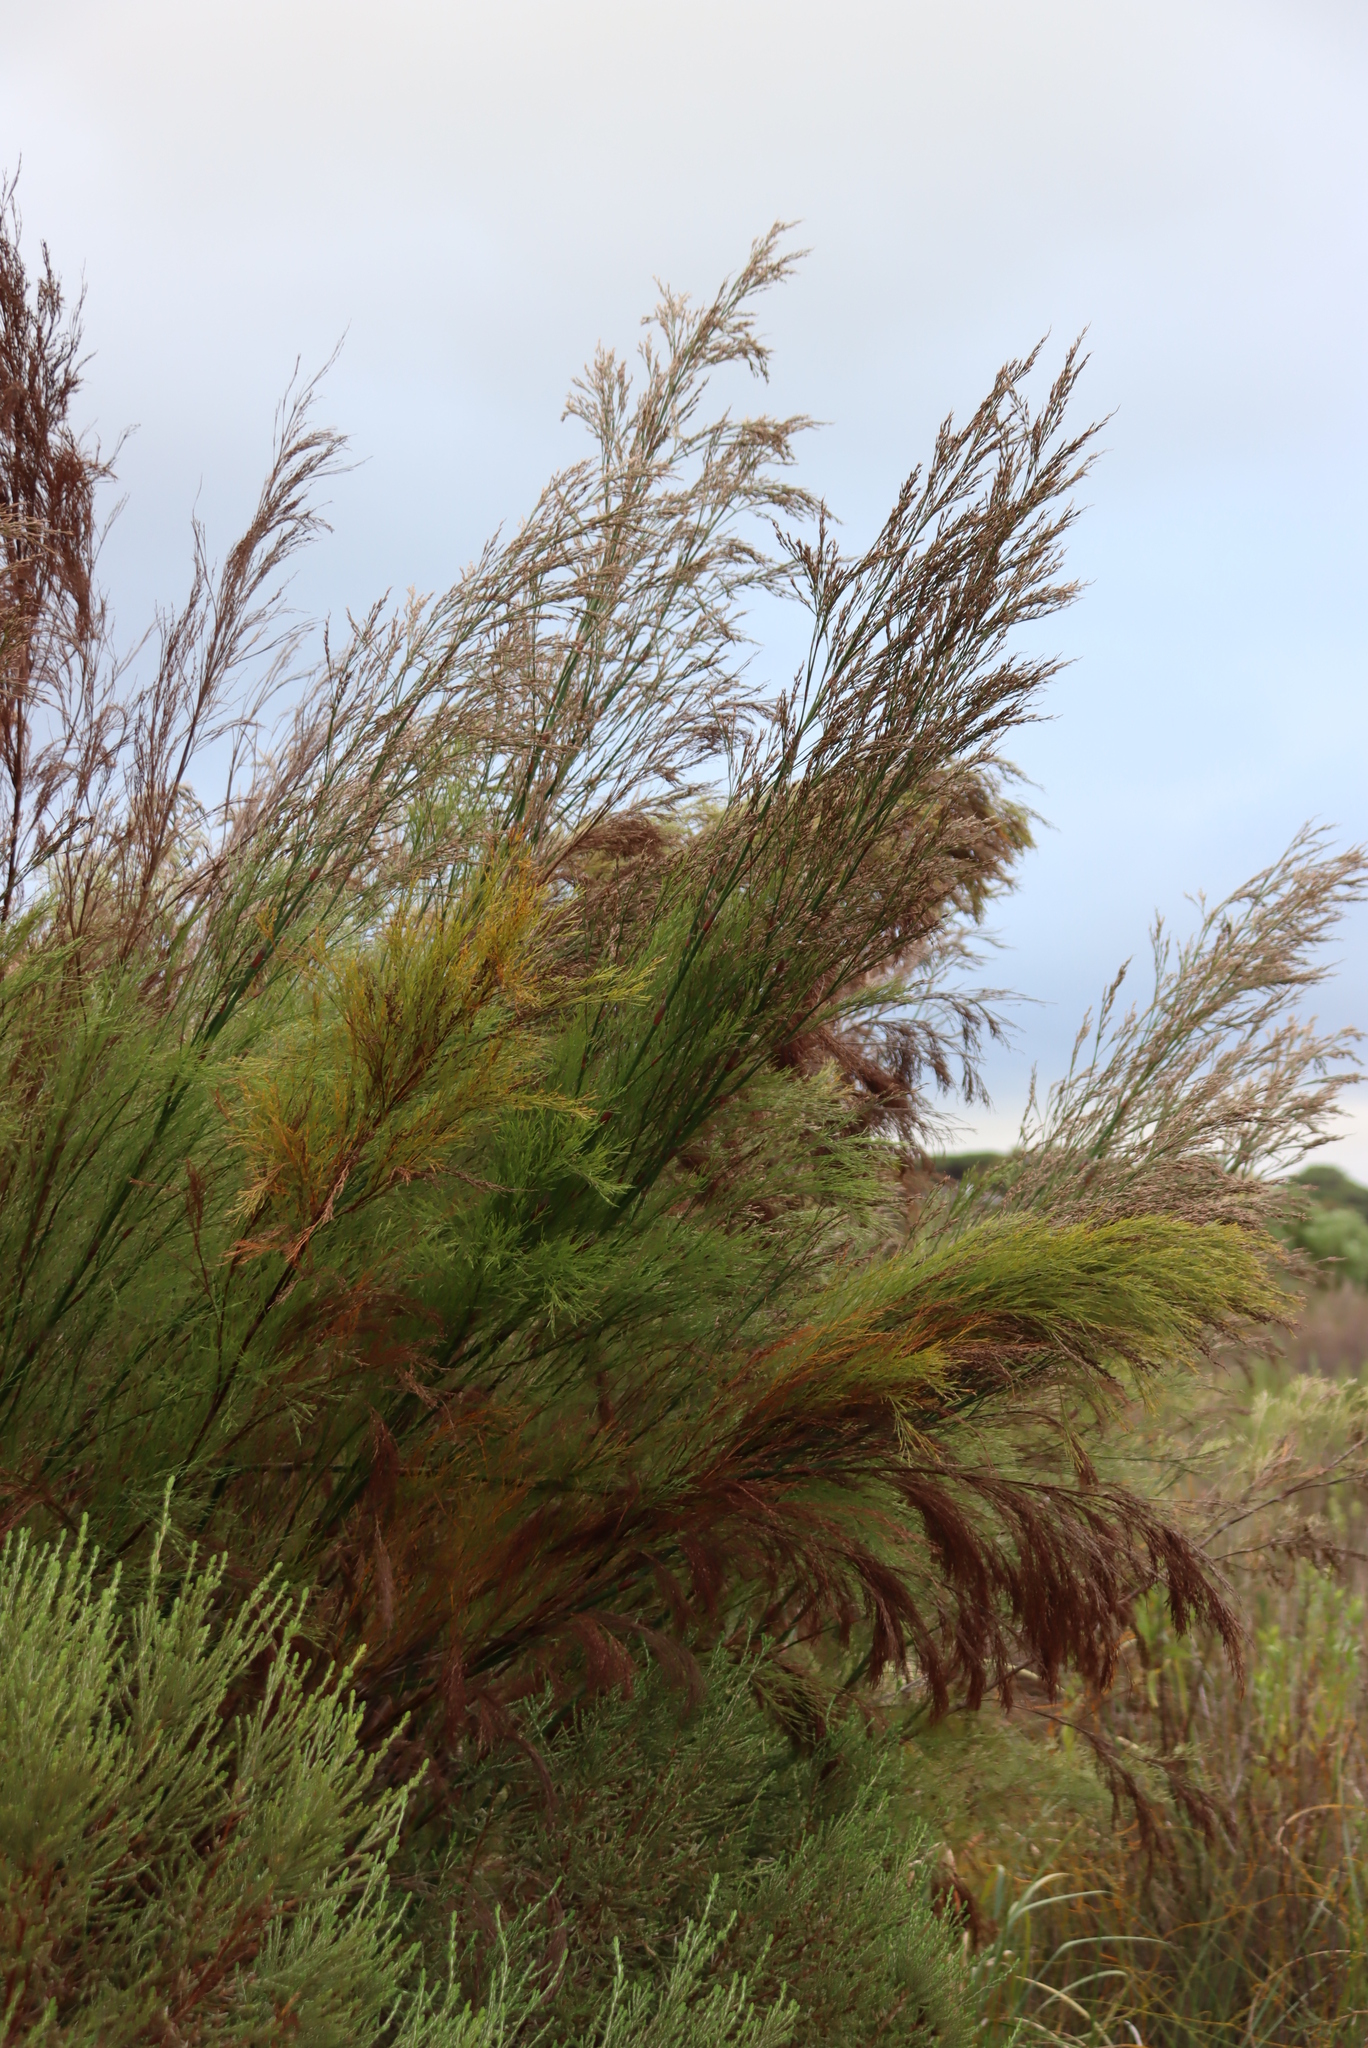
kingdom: Plantae
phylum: Tracheophyta
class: Liliopsida
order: Poales
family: Restionaceae
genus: Restio
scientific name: Restio paniculatus
